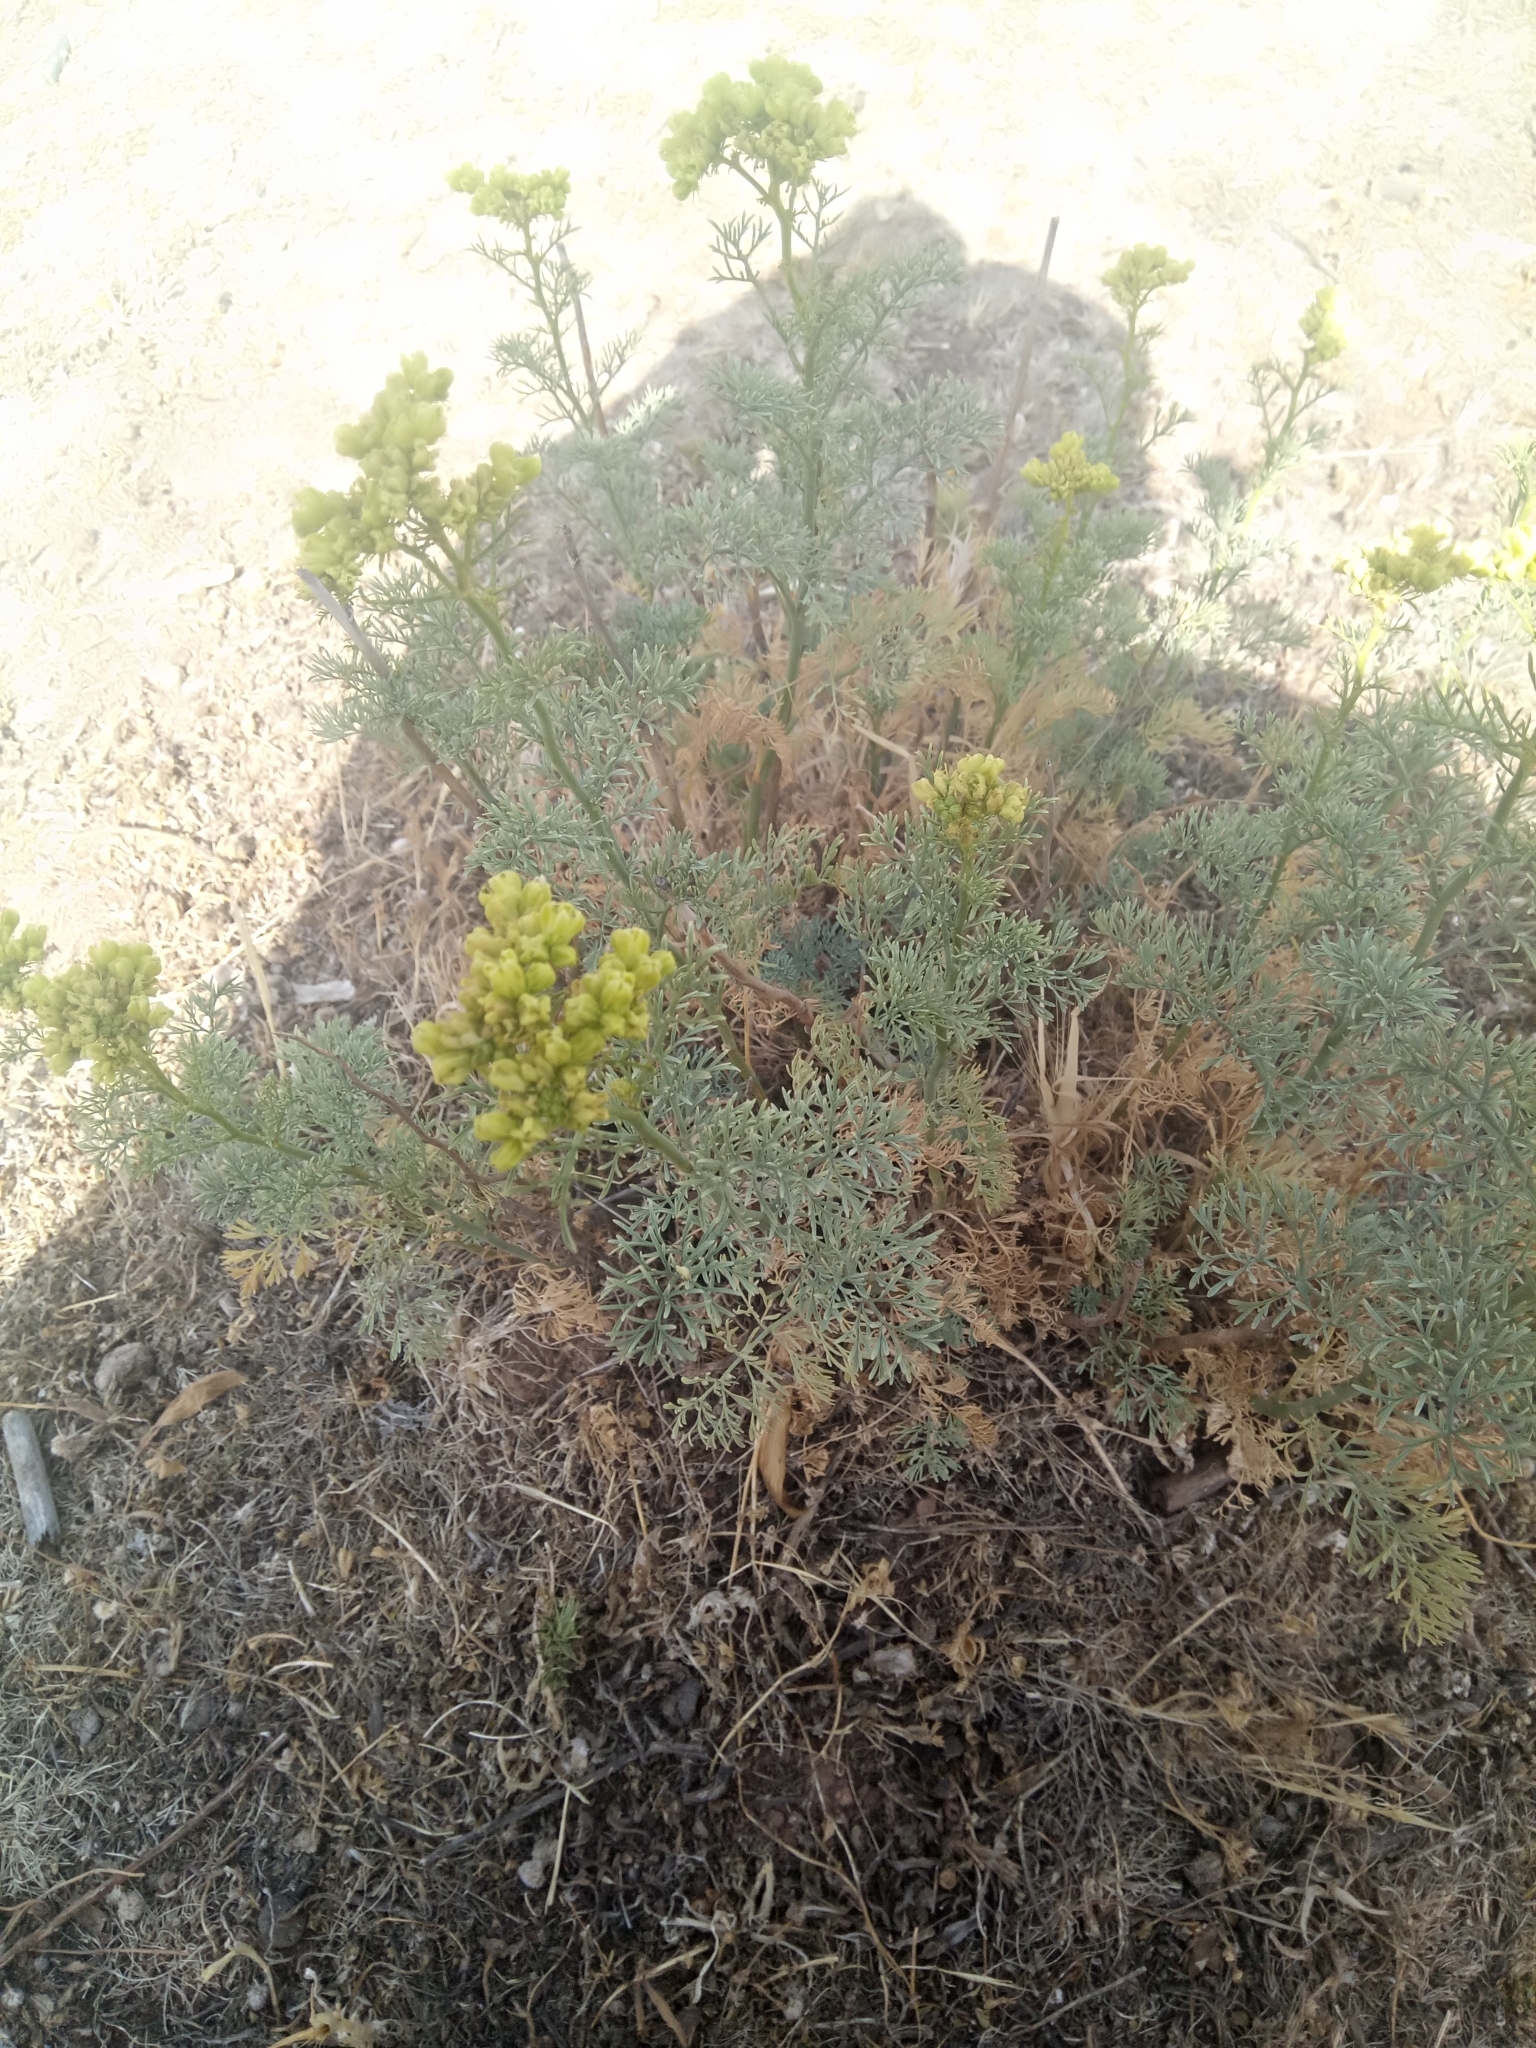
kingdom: Plantae
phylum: Tracheophyta
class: Magnoliopsida
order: Sapindales
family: Rutaceae
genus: Ruta
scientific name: Ruta montana
